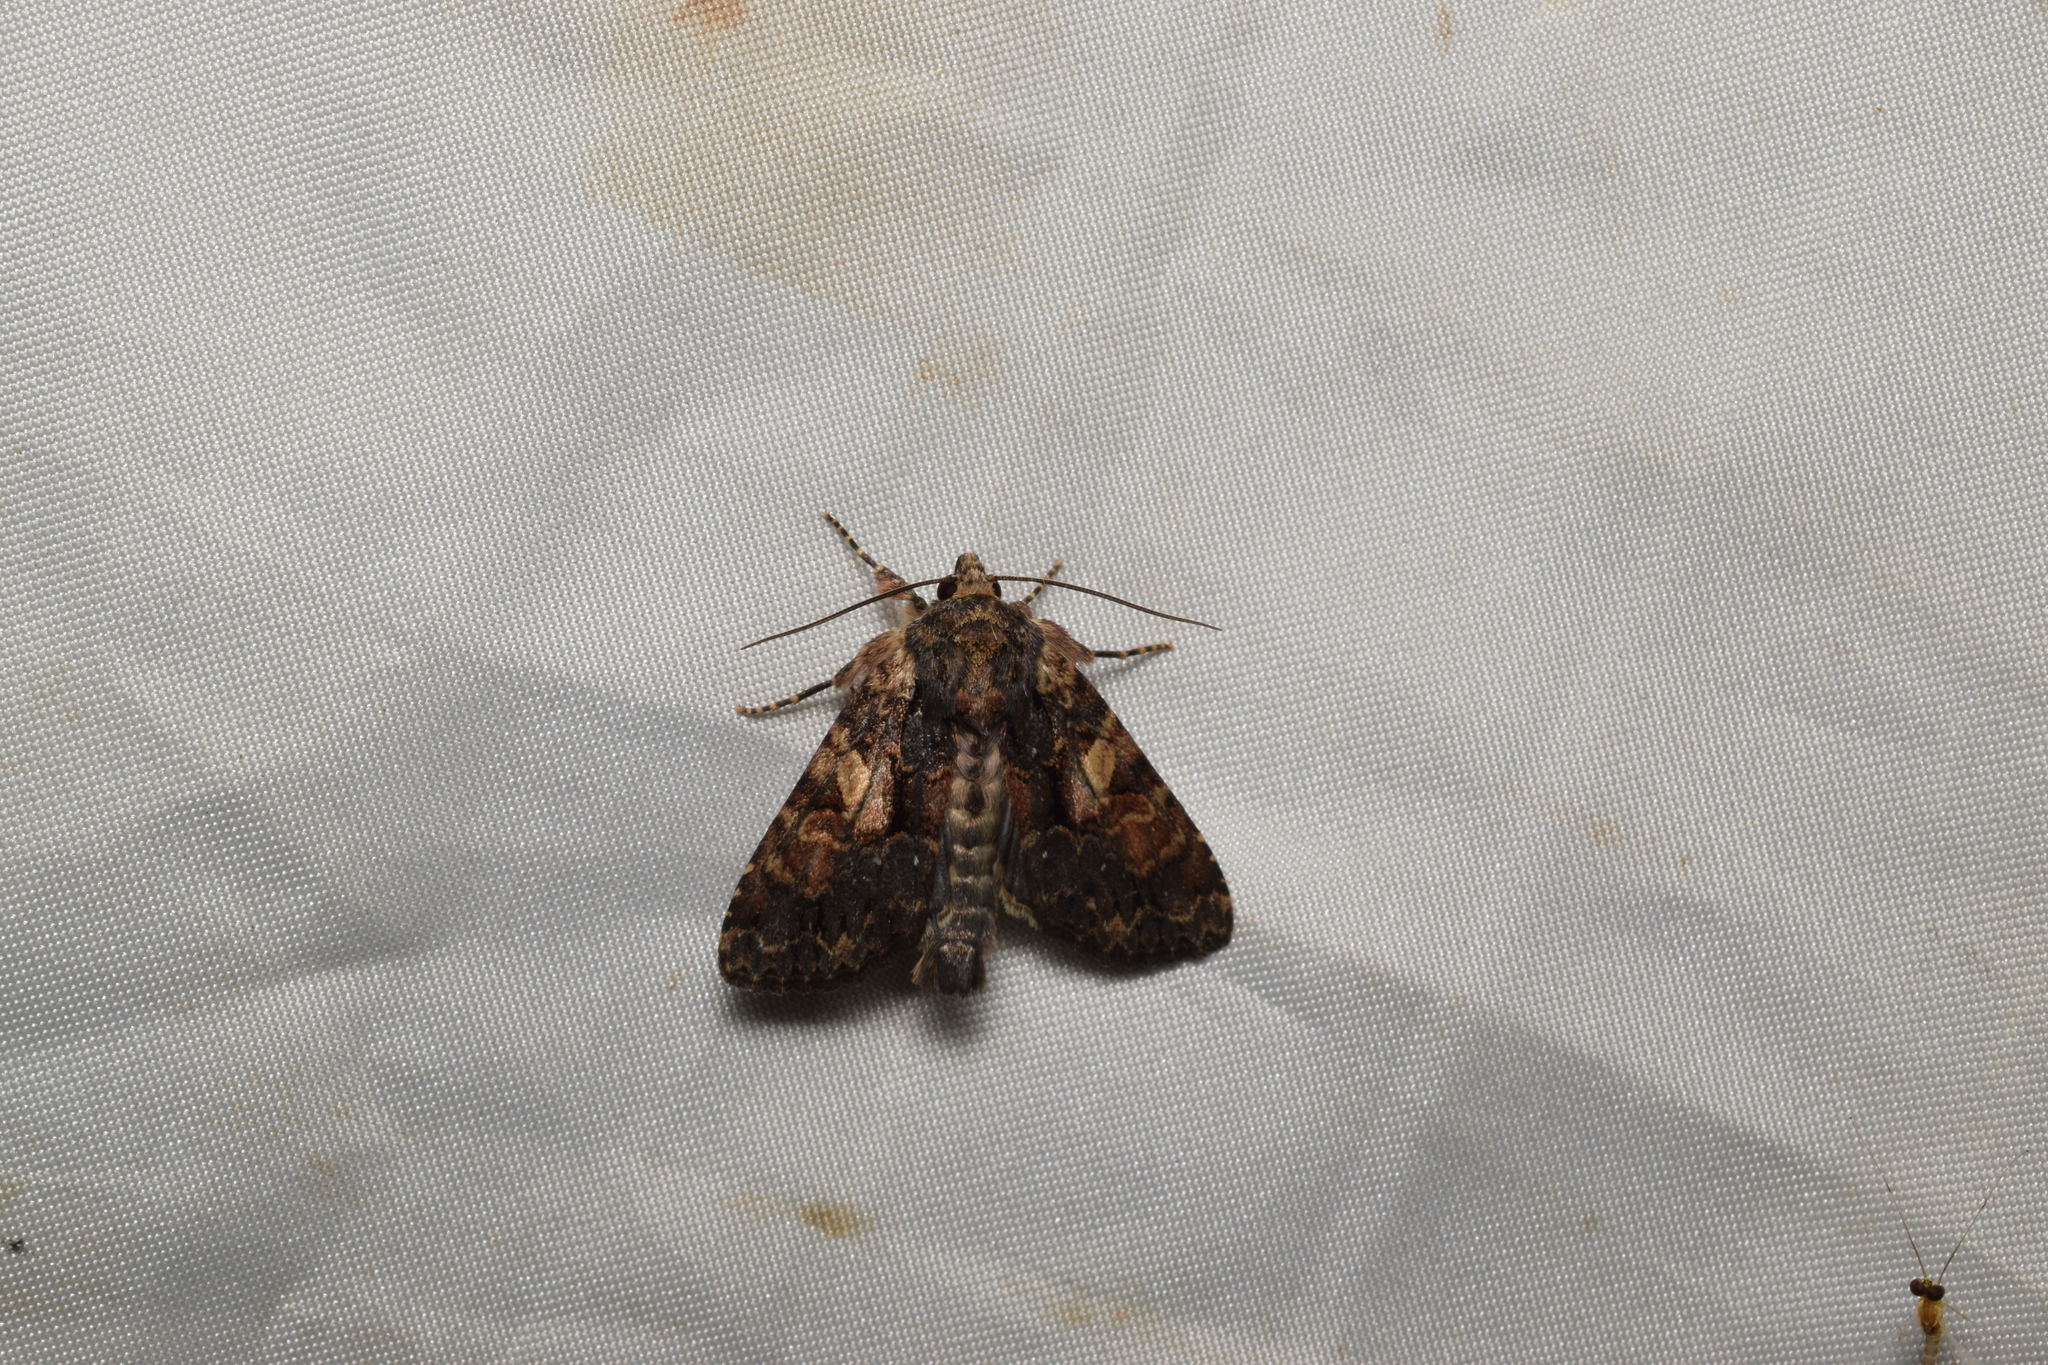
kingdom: Animalia
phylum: Arthropoda
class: Insecta
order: Lepidoptera
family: Noctuidae
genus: Apamea
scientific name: Apamea commixta
